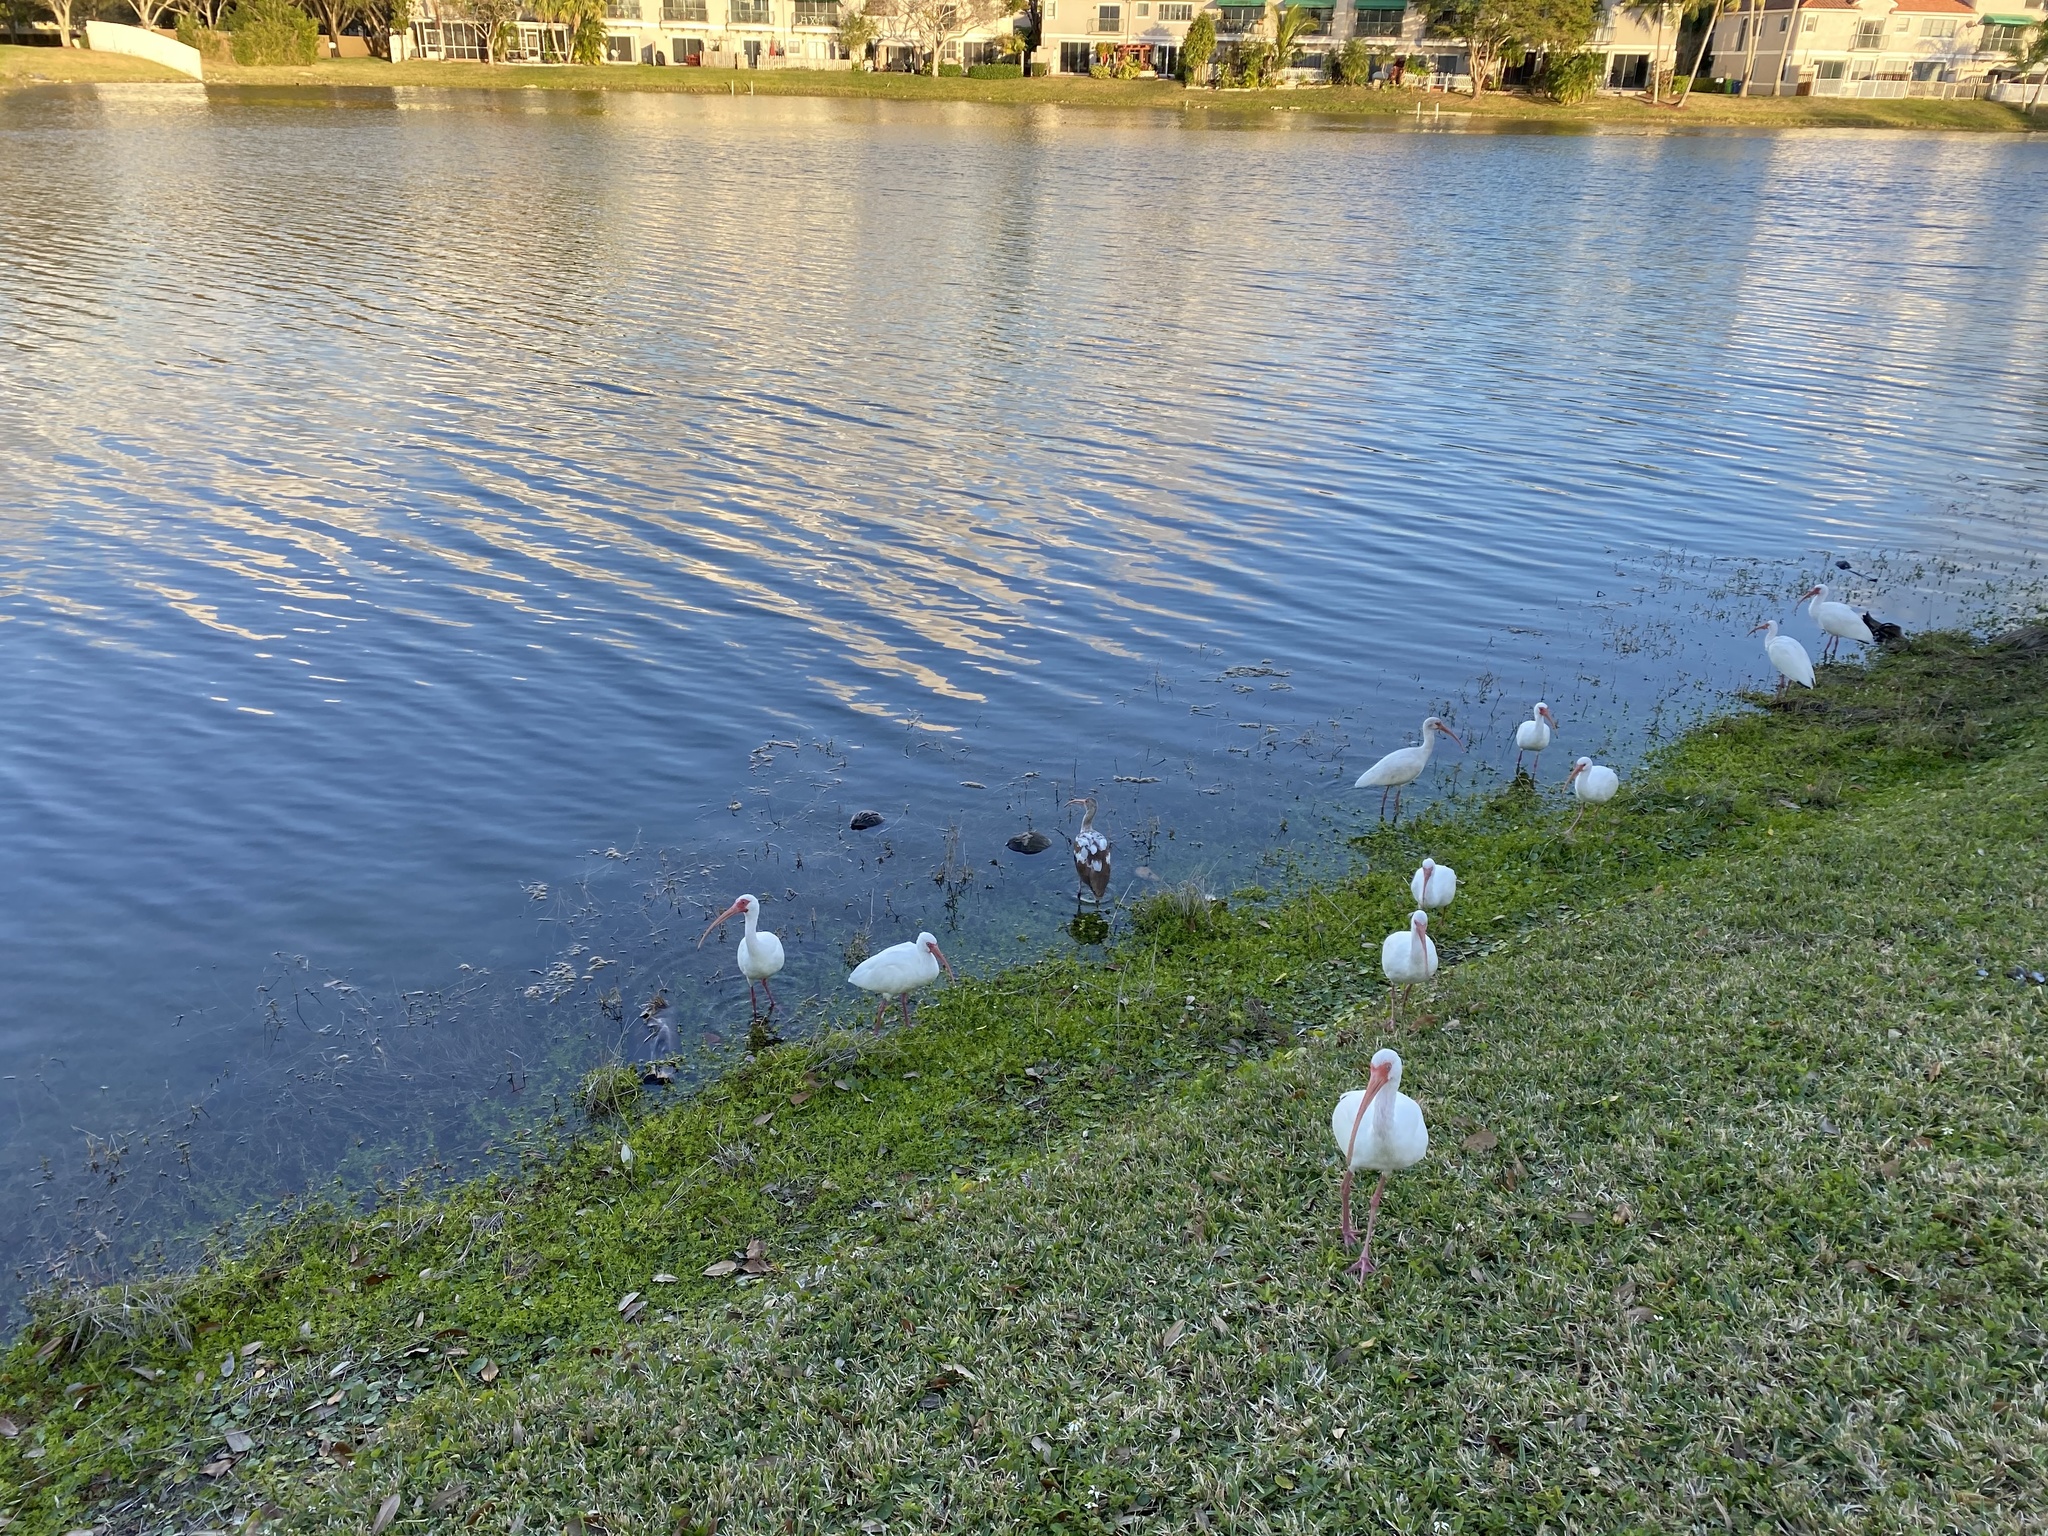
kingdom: Animalia
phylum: Chordata
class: Aves
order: Pelecaniformes
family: Threskiornithidae
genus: Eudocimus
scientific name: Eudocimus albus
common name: White ibis
